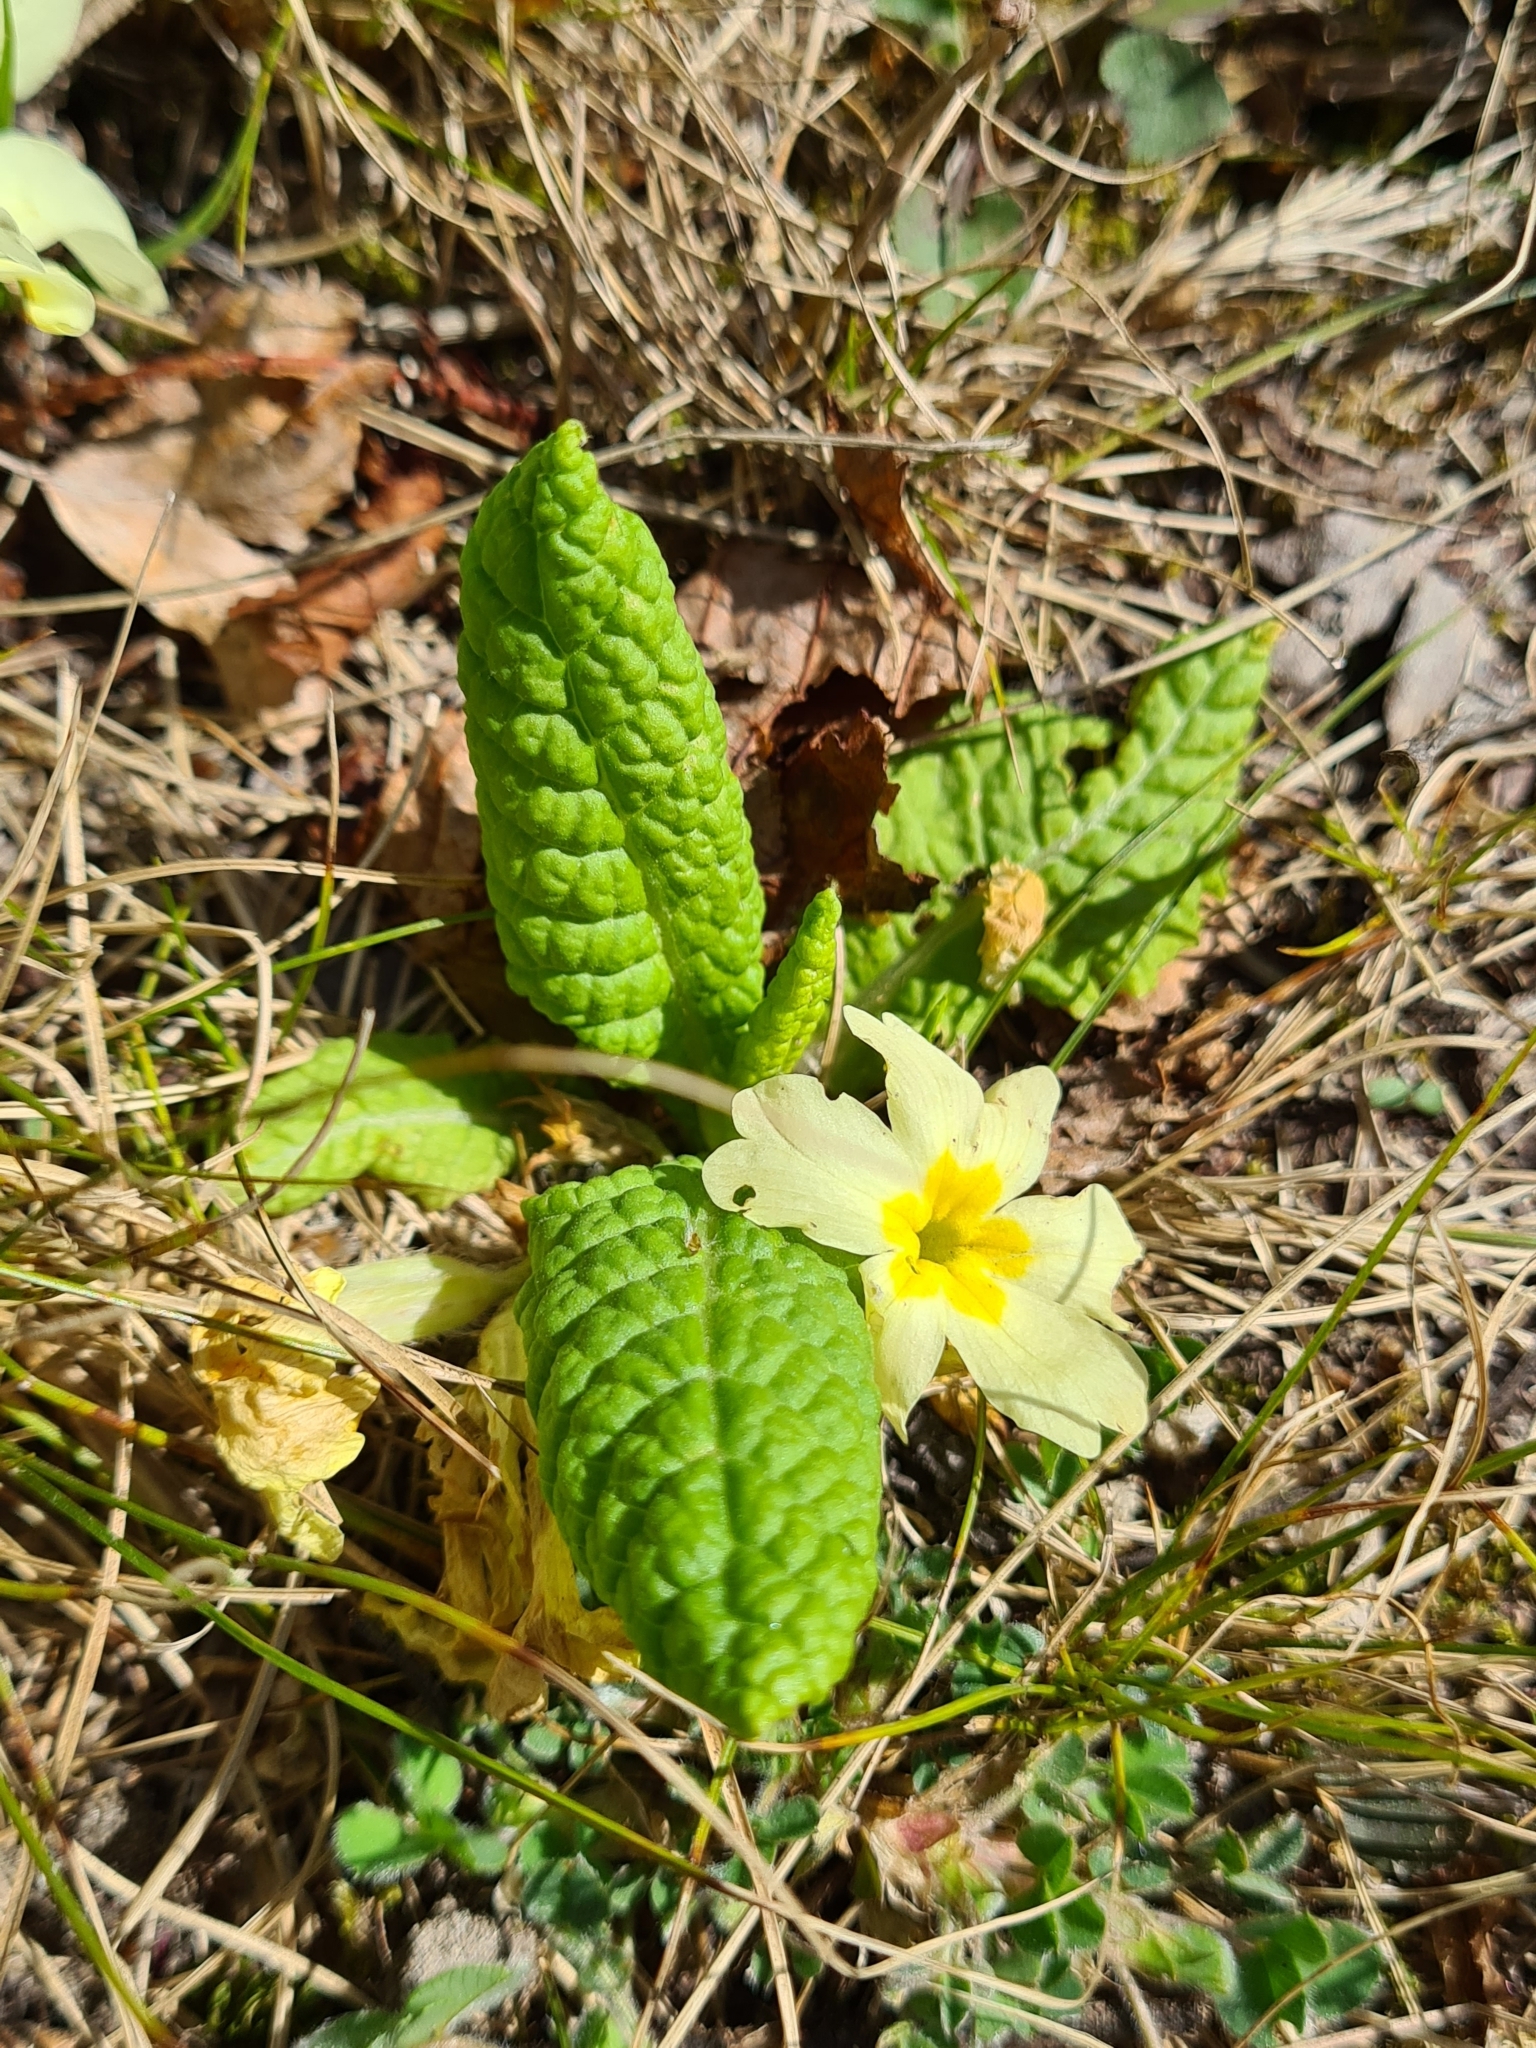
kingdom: Plantae
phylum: Tracheophyta
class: Magnoliopsida
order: Ericales
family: Primulaceae
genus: Primula
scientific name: Primula vulgaris
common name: Primrose
